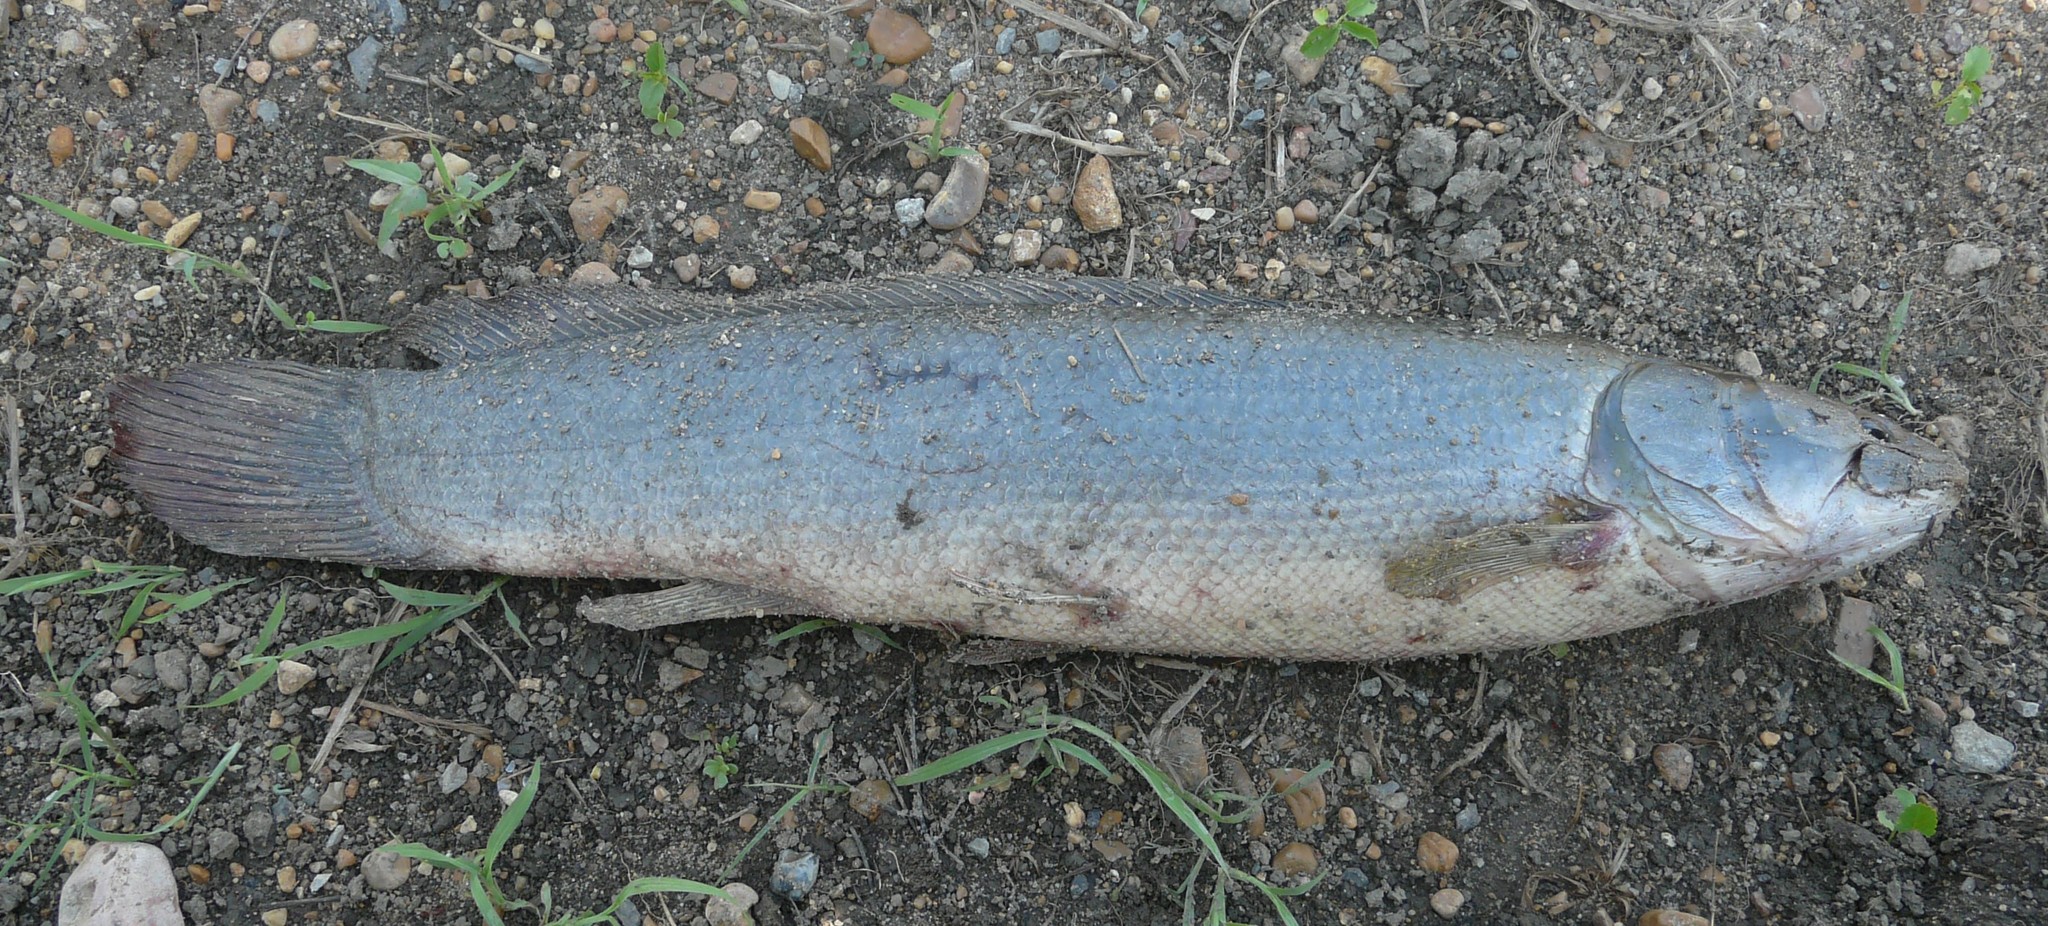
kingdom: Animalia
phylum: Chordata
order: Amiiformes
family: Amiidae
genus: Amia
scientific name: Amia calva
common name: Bowfin
